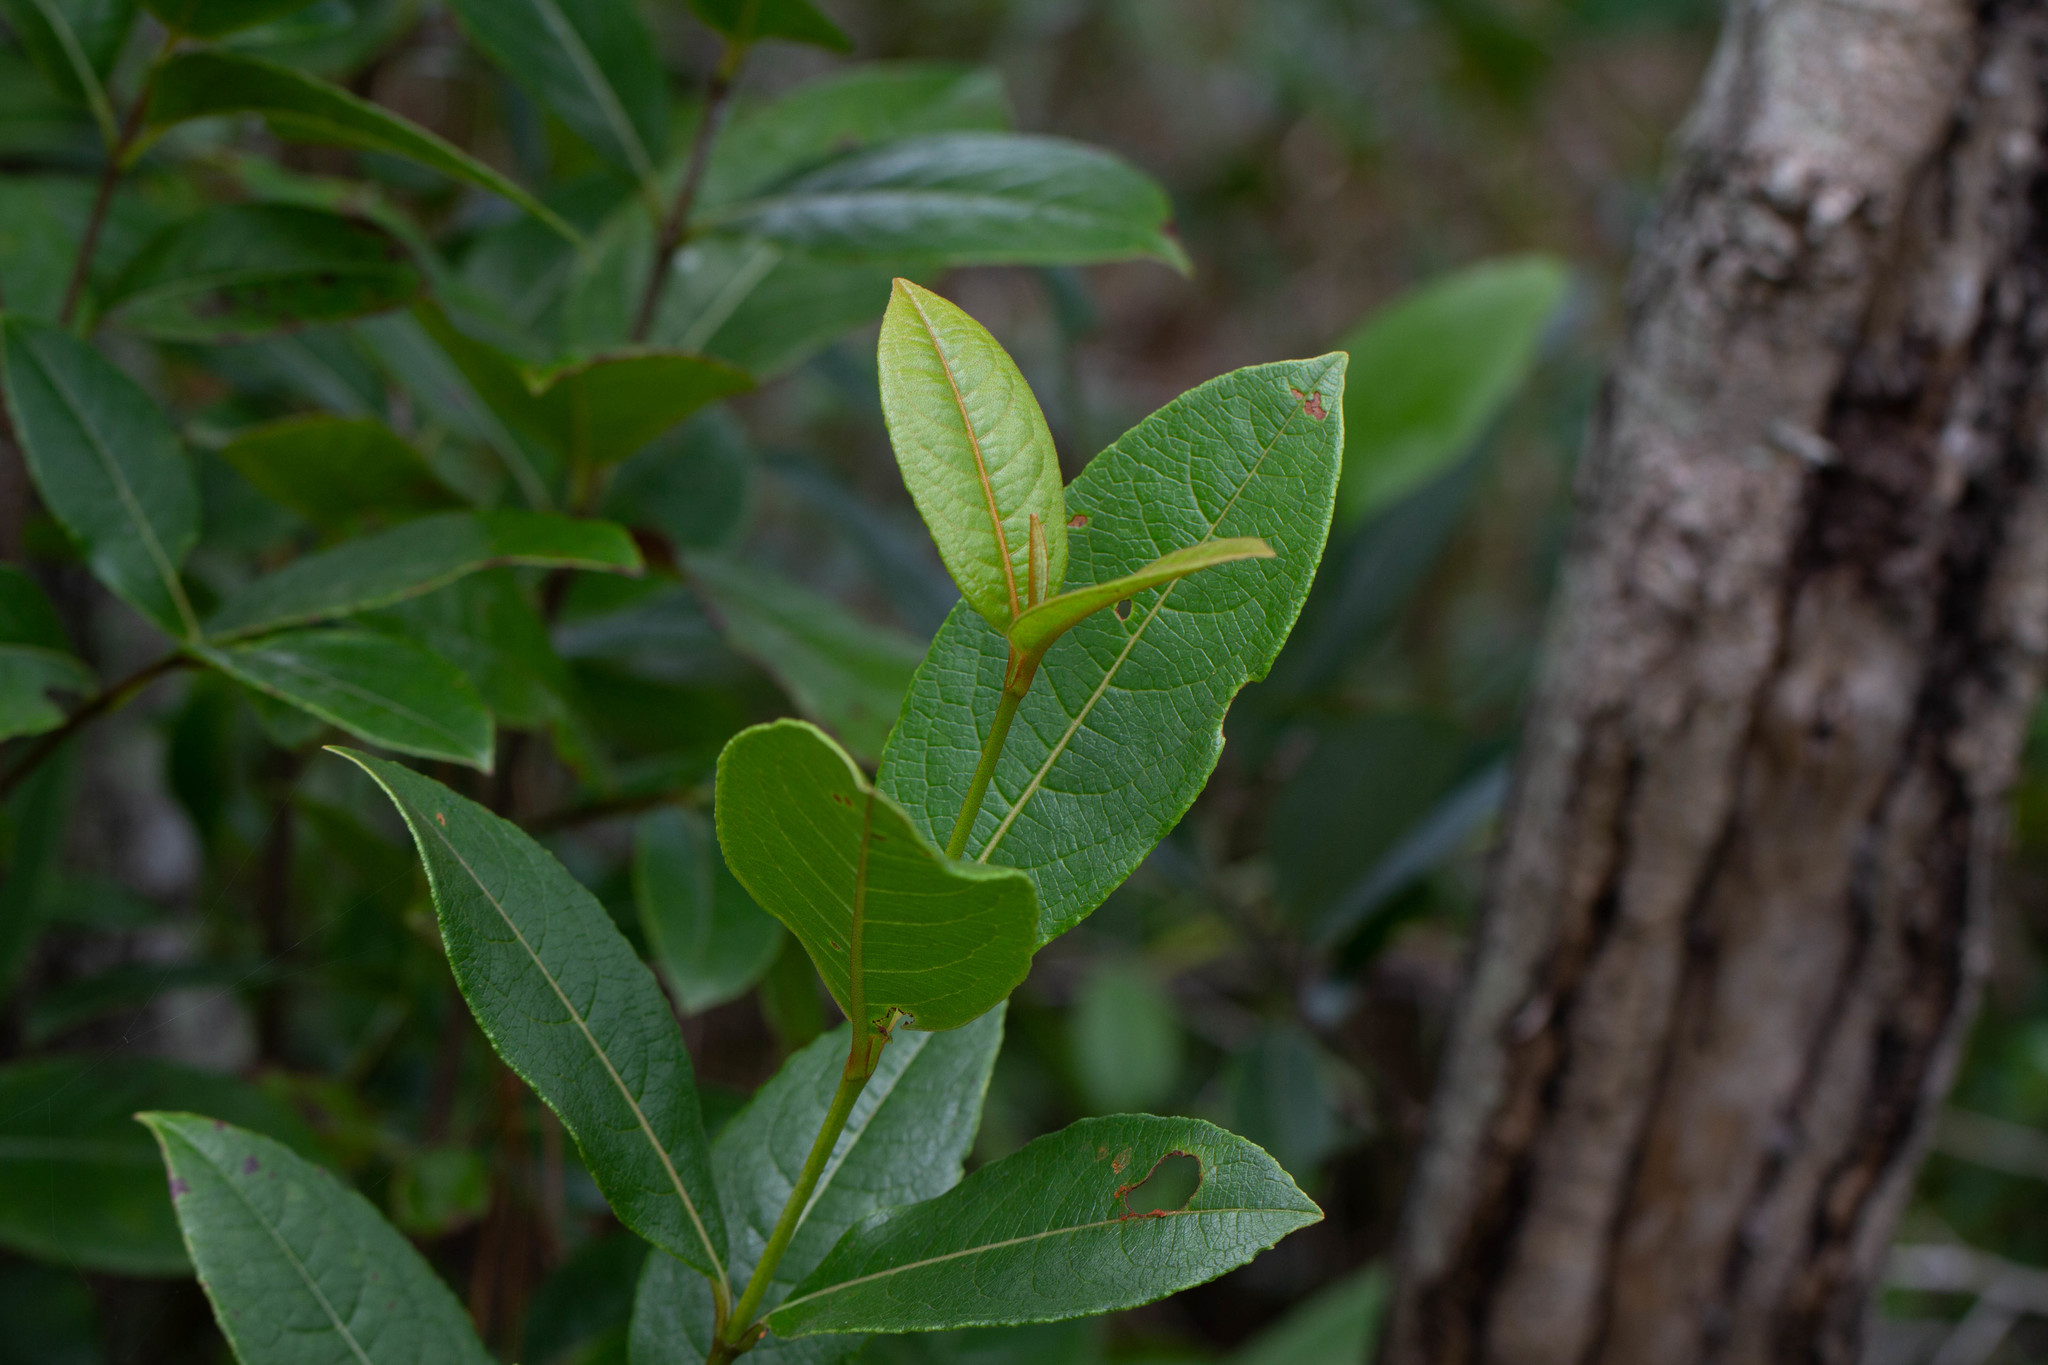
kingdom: Plantae
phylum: Tracheophyta
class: Magnoliopsida
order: Dipsacales
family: Viburnaceae
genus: Viburnum
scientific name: Viburnum nudum
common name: Possum haw
